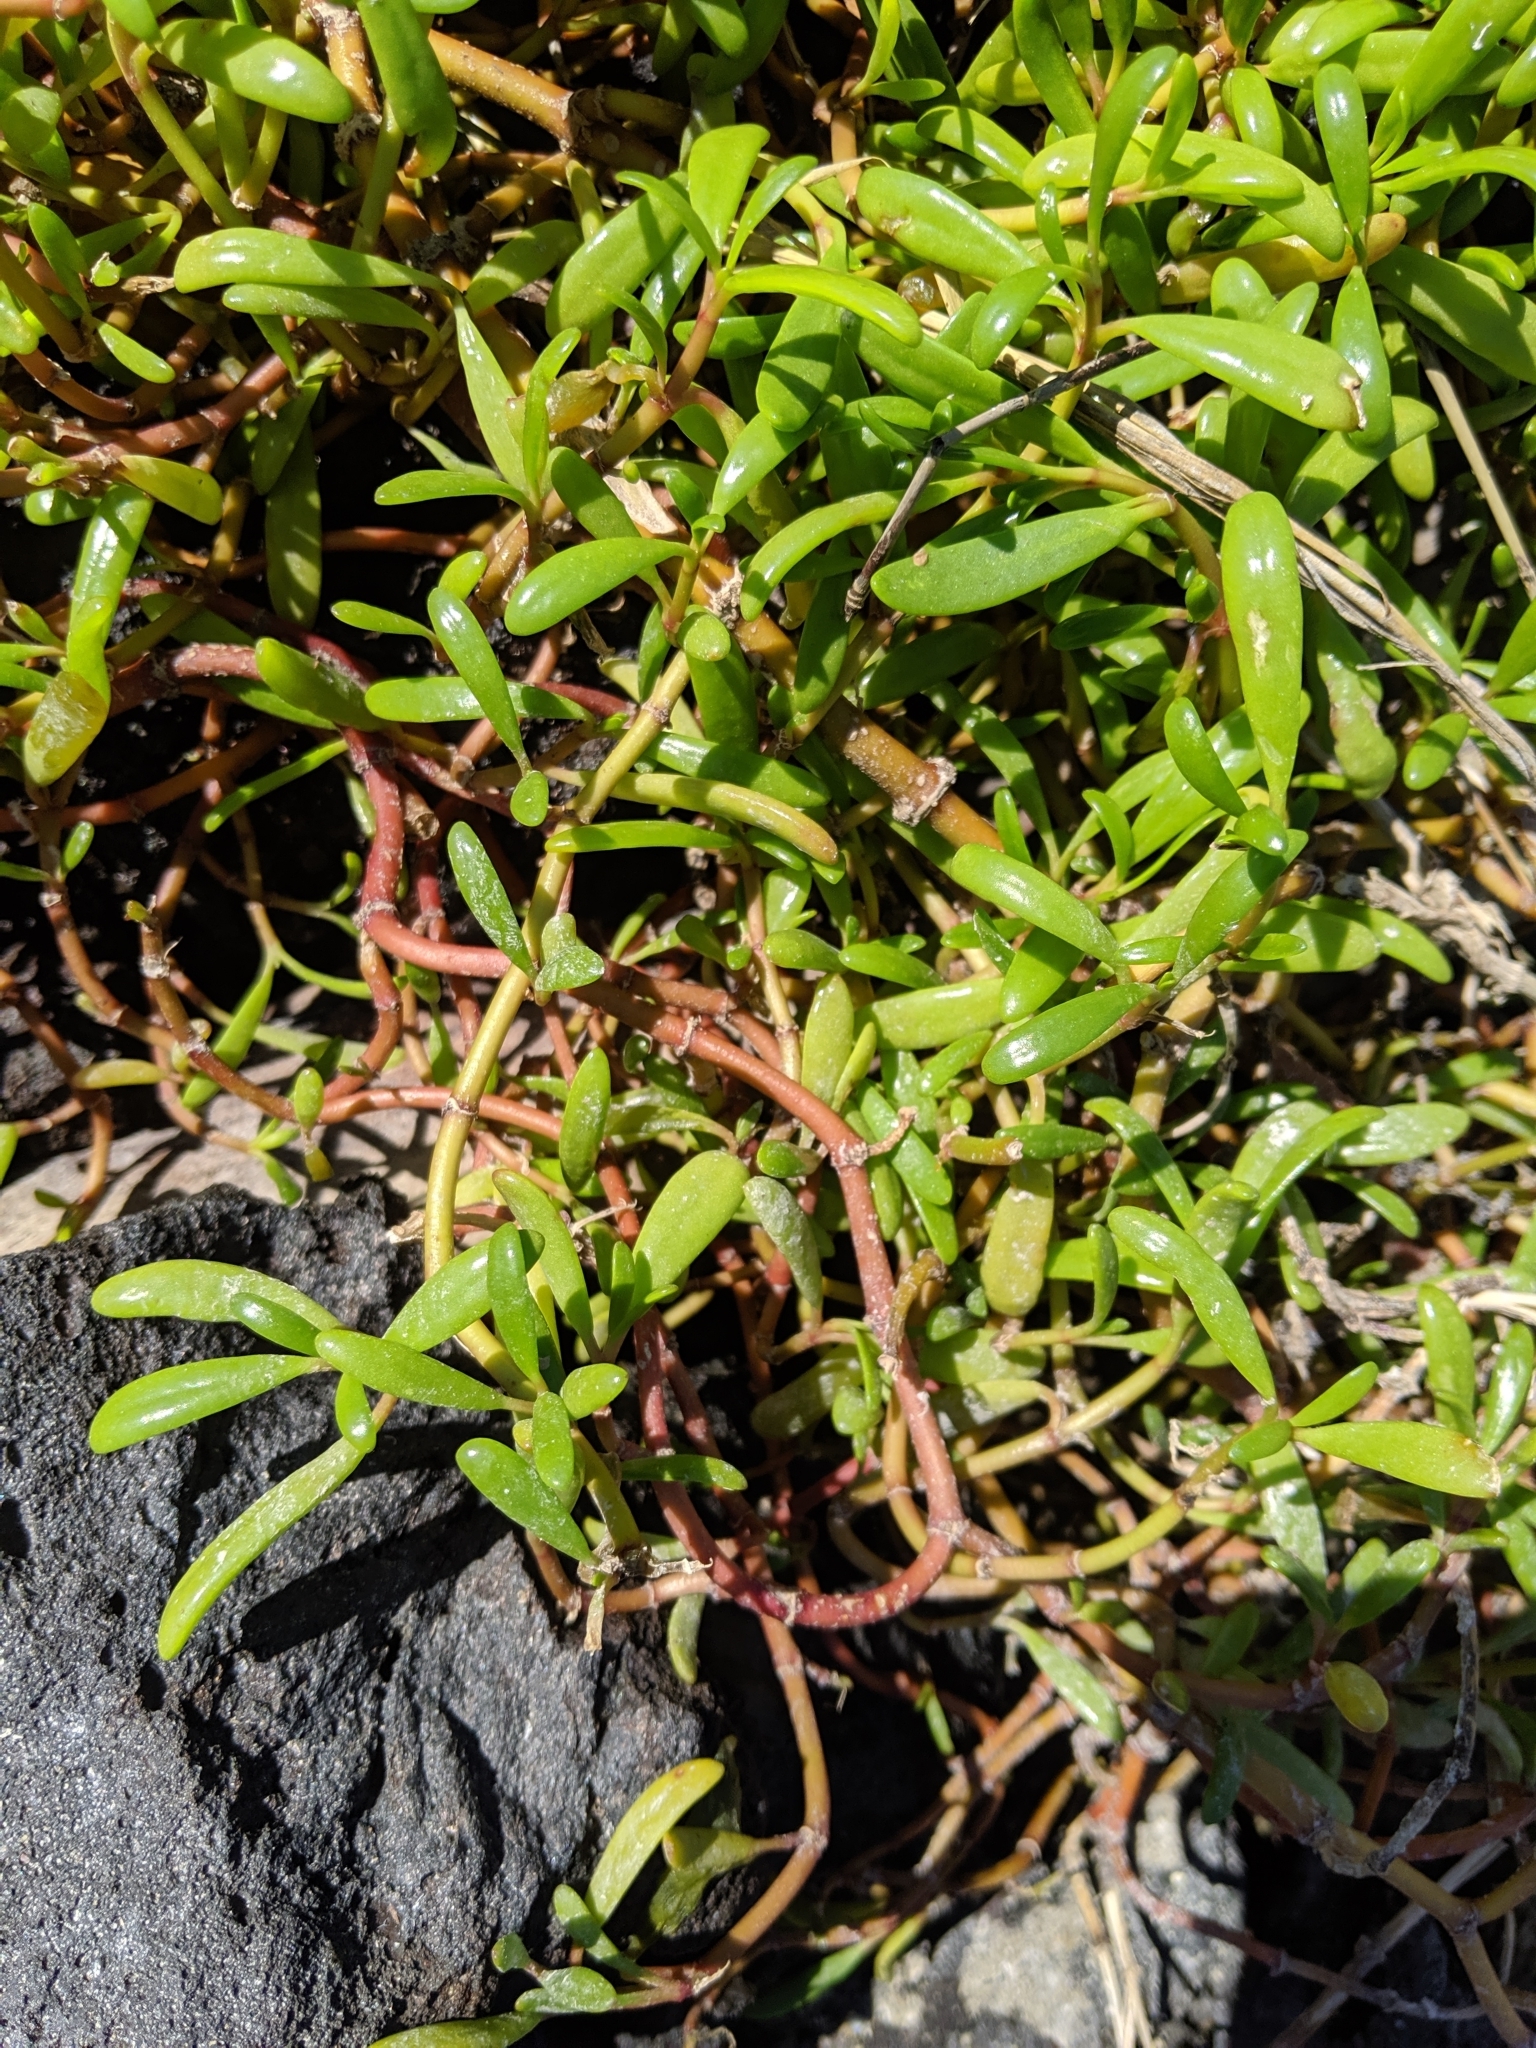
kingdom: Plantae
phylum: Tracheophyta
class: Magnoliopsida
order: Caryophyllales
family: Aizoaceae
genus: Sesuvium
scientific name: Sesuvium portulacastrum
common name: Sea-purslane
